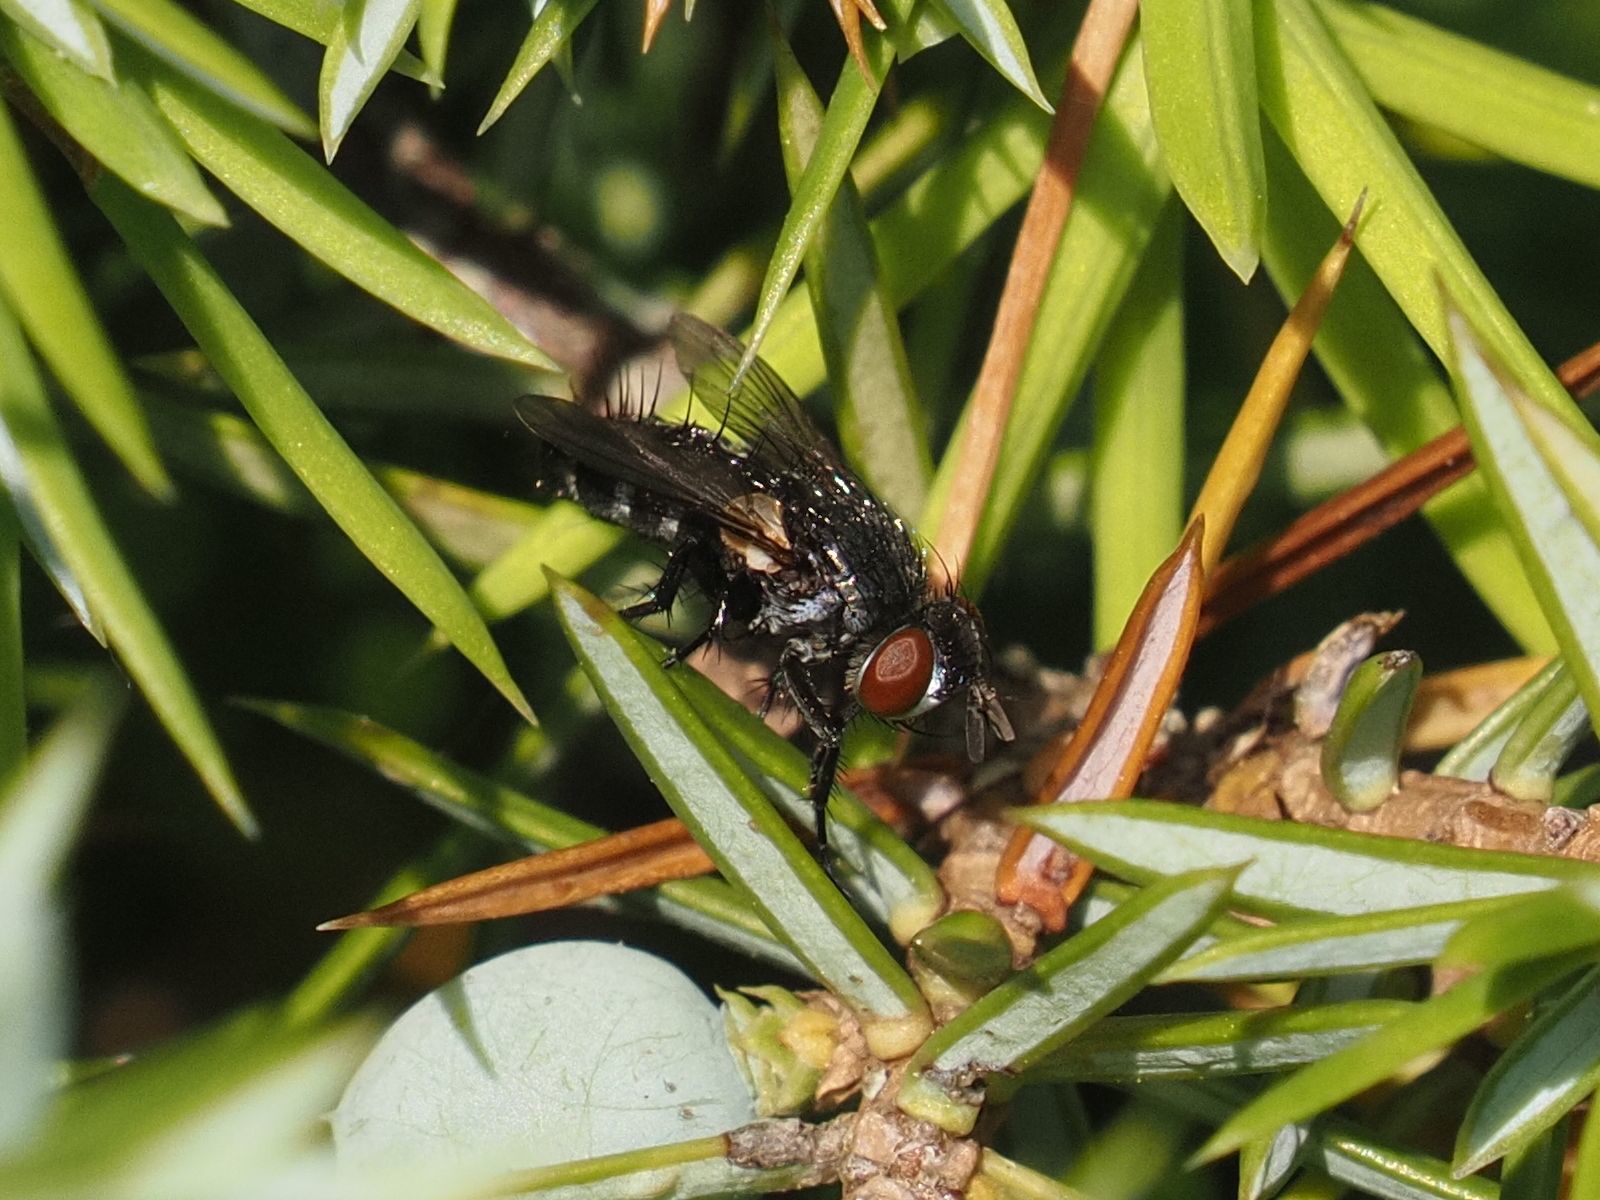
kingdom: Animalia
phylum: Arthropoda
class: Insecta
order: Diptera
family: Tachinidae
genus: Staurochaeta
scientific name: Staurochaeta albocingulata
